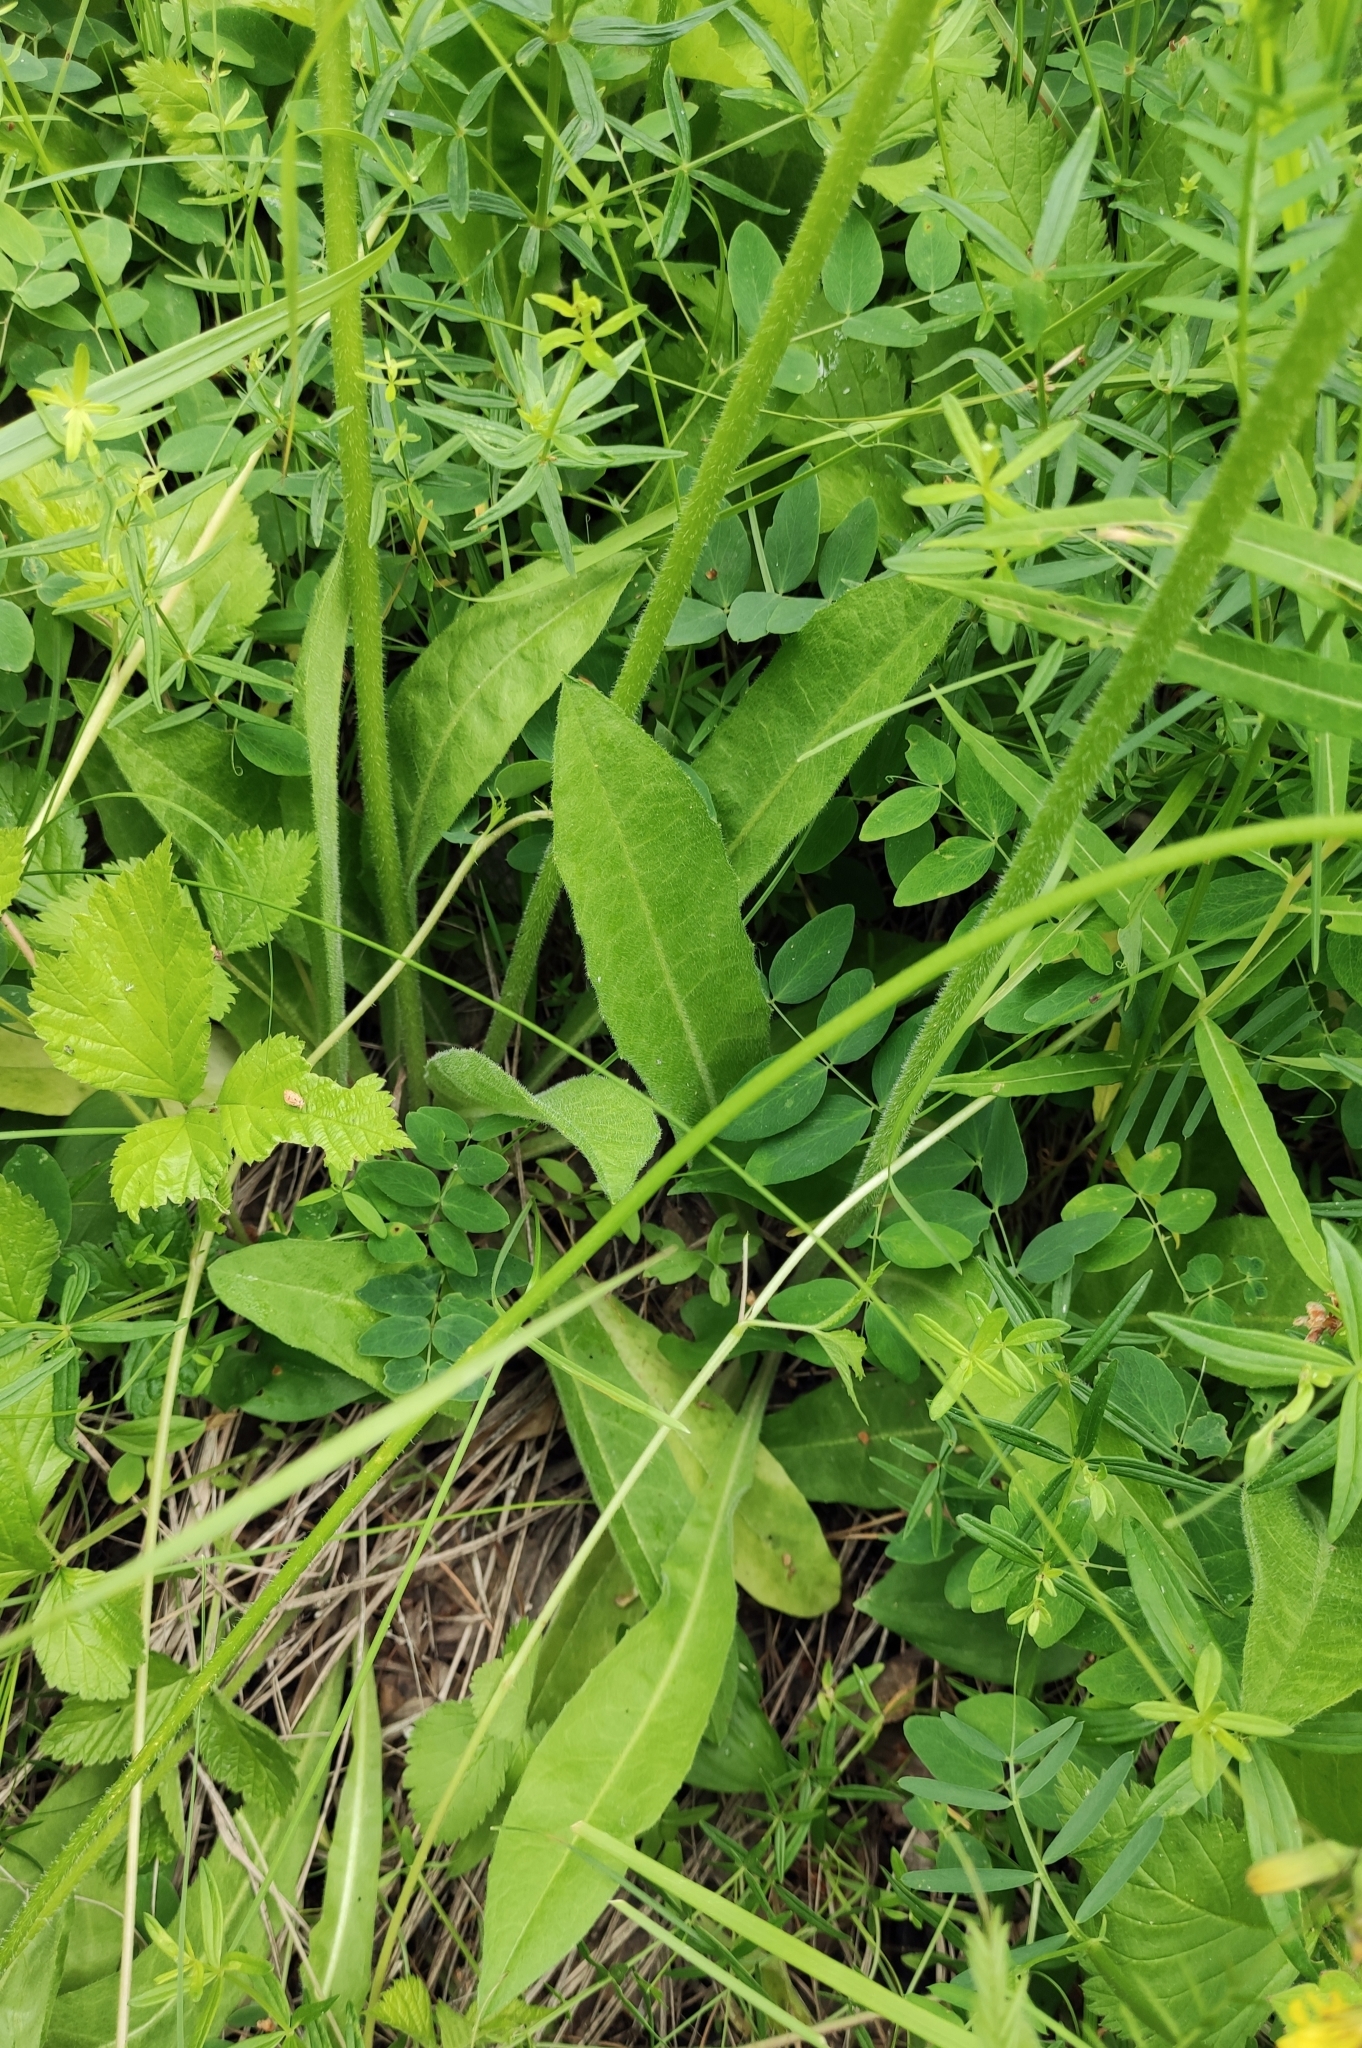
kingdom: Plantae
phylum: Tracheophyta
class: Magnoliopsida
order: Asterales
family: Asteraceae
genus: Crepis
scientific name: Crepis praemorsa
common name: Leafless hawk's-beard
